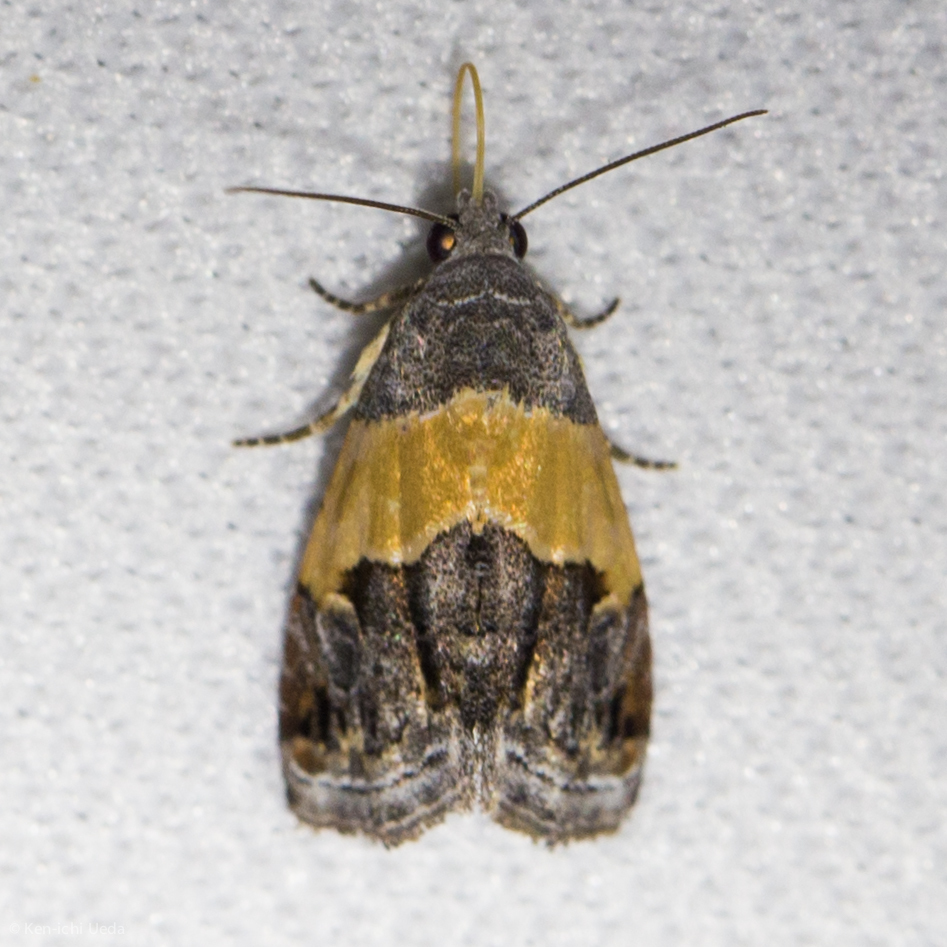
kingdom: Animalia
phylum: Arthropoda
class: Insecta
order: Lepidoptera
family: Noctuidae
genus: Tripudia
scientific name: Tripudia balteata
